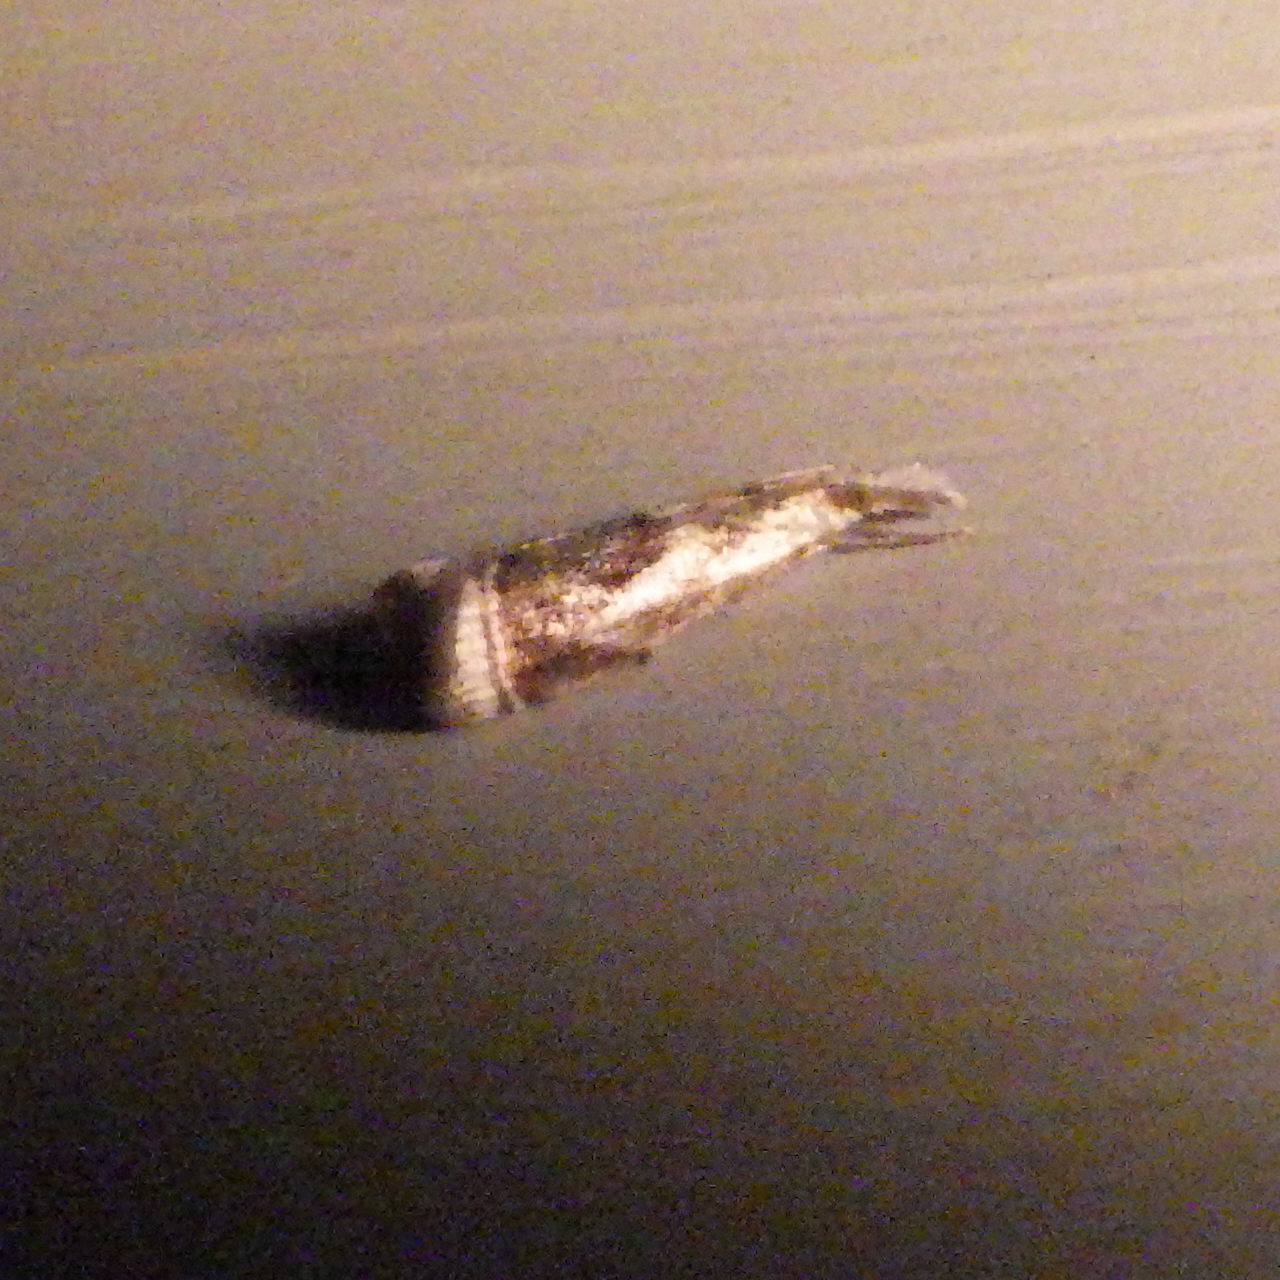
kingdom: Animalia
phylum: Arthropoda
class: Insecta
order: Lepidoptera
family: Crambidae
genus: Microcrambus
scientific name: Microcrambus elegans
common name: Elegant grass-veneer
